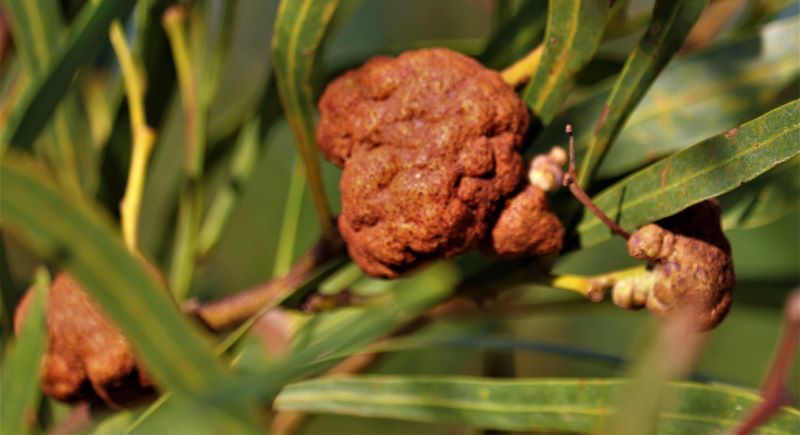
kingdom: Fungi
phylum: Basidiomycota
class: Pucciniomycetes
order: Pucciniales
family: Uromycladiaceae
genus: Uromycladium
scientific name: Uromycladium acaciae
